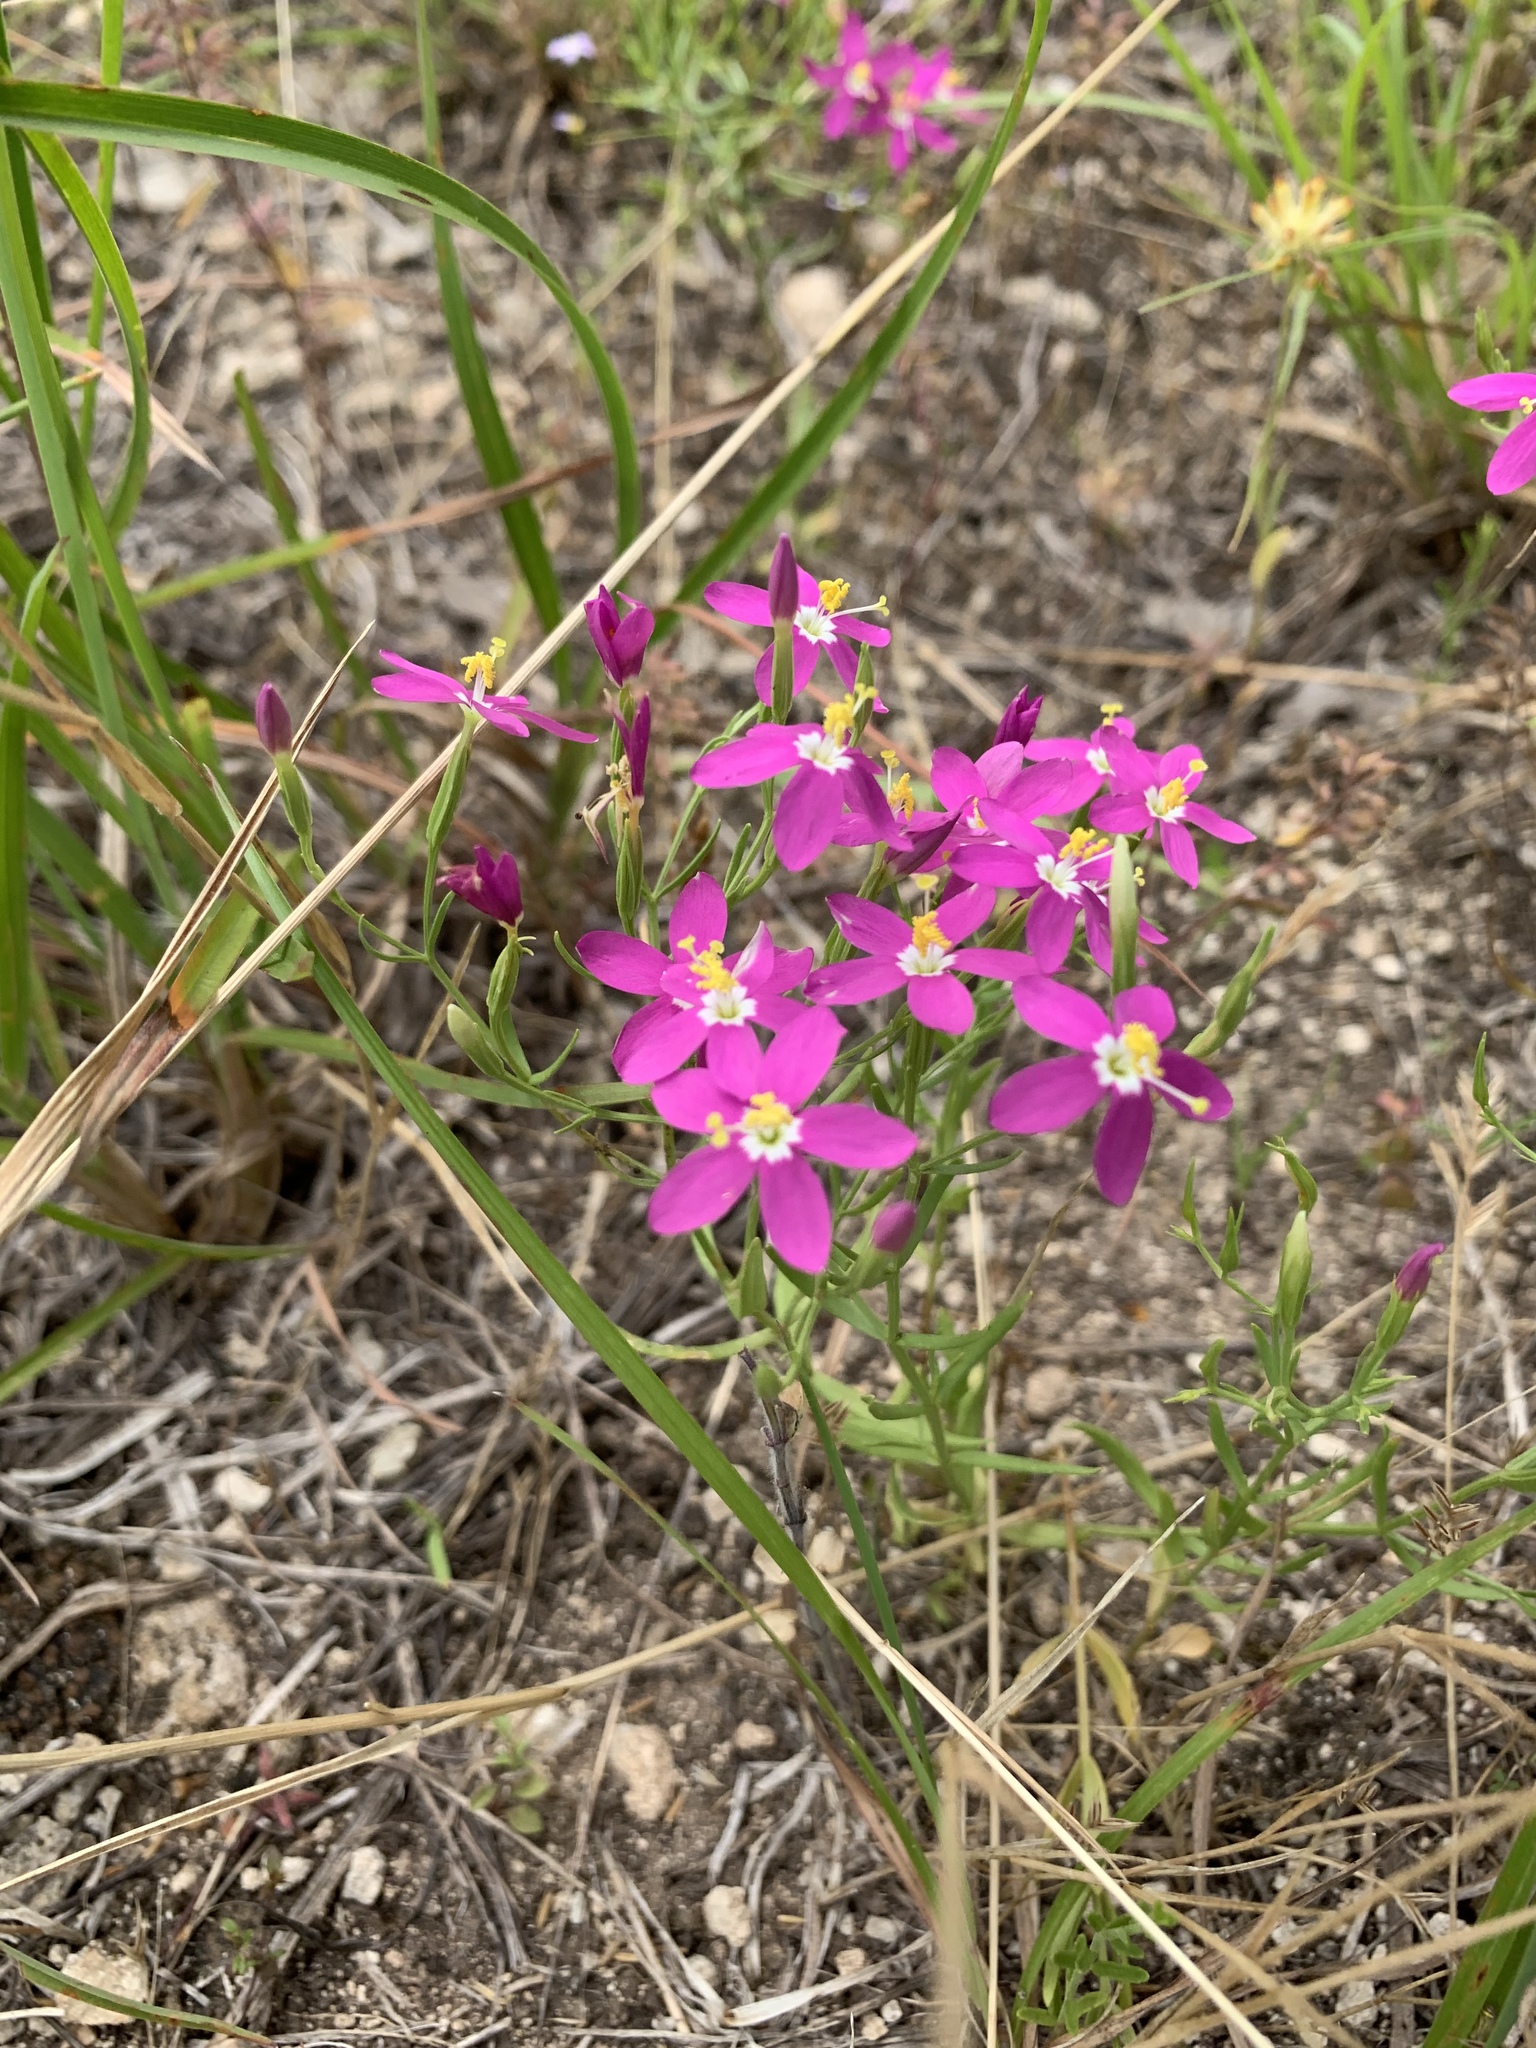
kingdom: Plantae
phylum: Tracheophyta
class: Magnoliopsida
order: Gentianales
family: Gentianaceae
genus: Zeltnera
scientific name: Zeltnera calycosa
